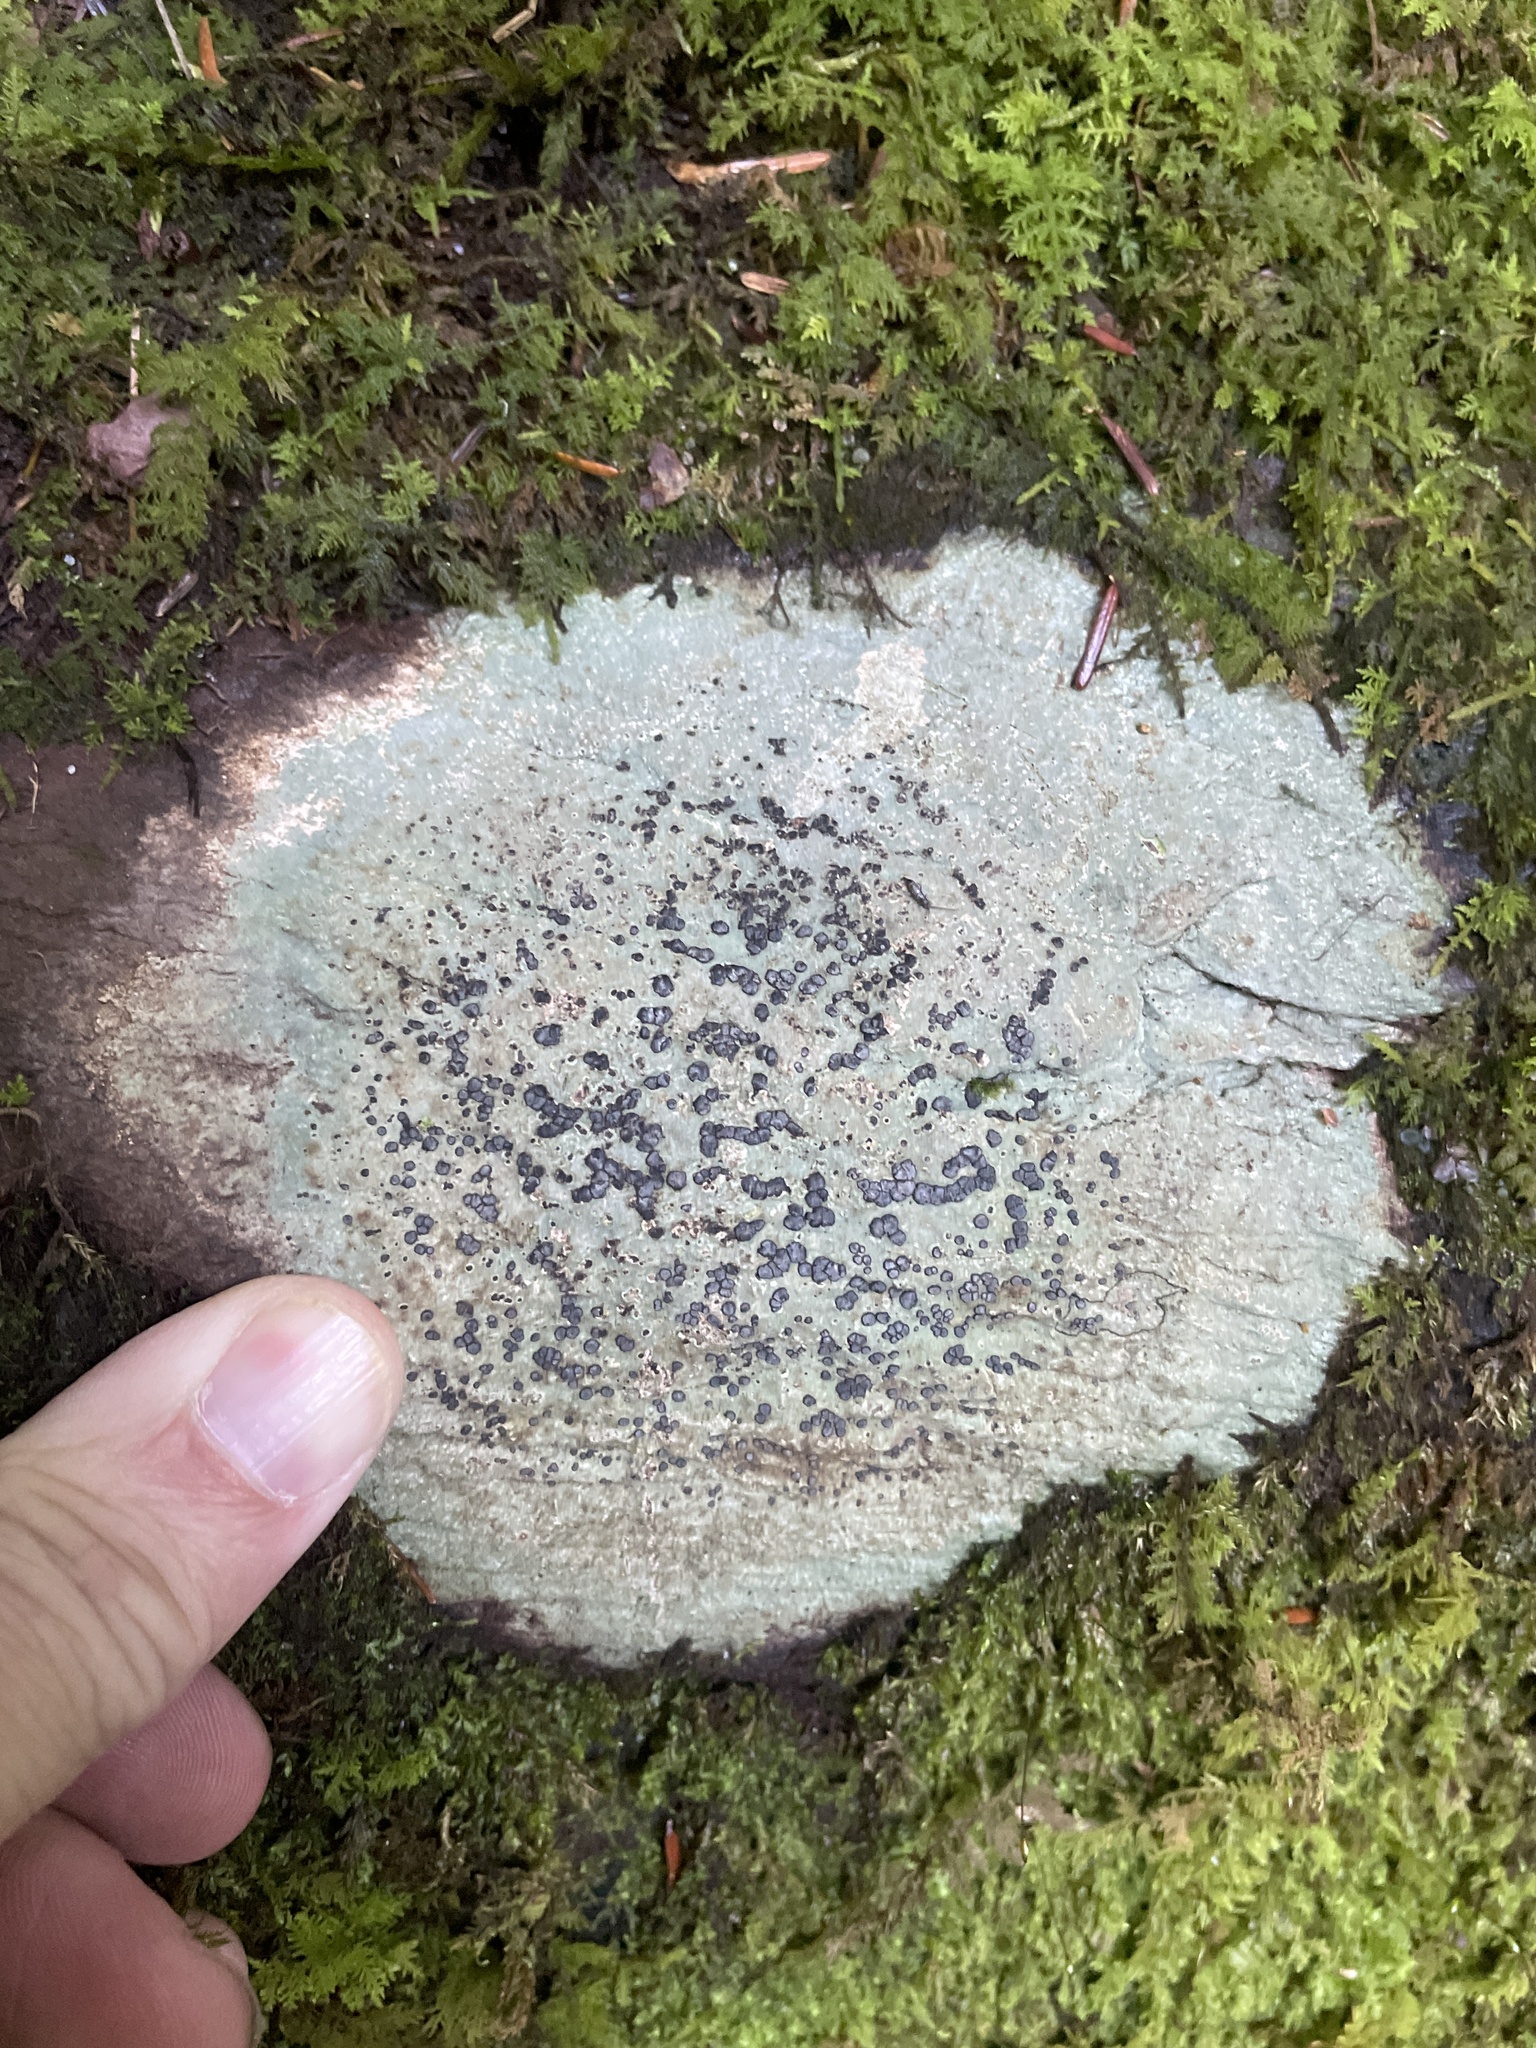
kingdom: Fungi
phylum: Ascomycota
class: Lecanoromycetes
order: Lecideales
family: Lecideaceae
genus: Porpidia
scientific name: Porpidia albocaerulescens
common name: Smokey-eyed boulder lichen
